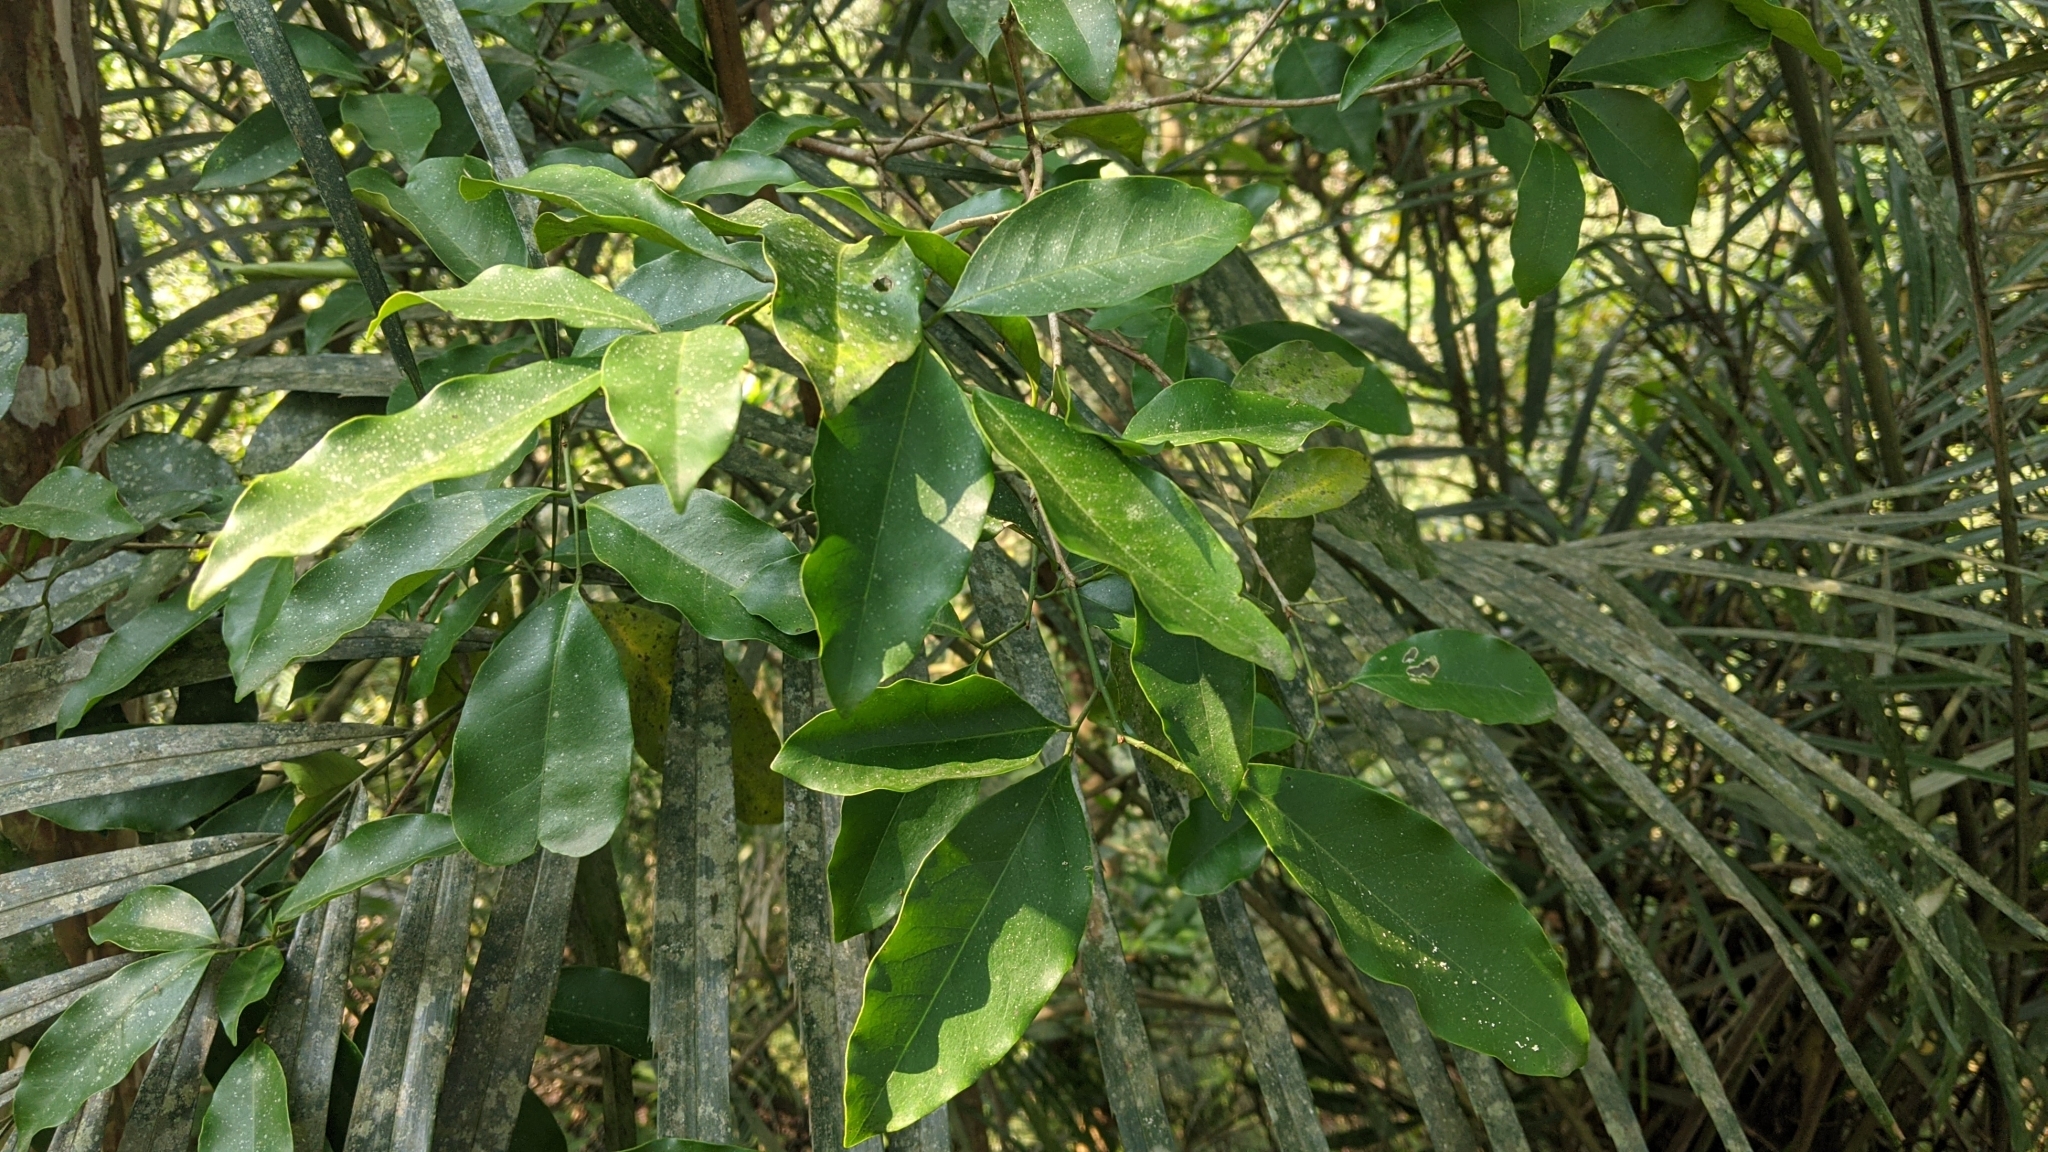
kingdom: Plantae
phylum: Tracheophyta
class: Magnoliopsida
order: Sapindales
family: Rutaceae
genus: Glycosmis
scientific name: Glycosmis parviflora
